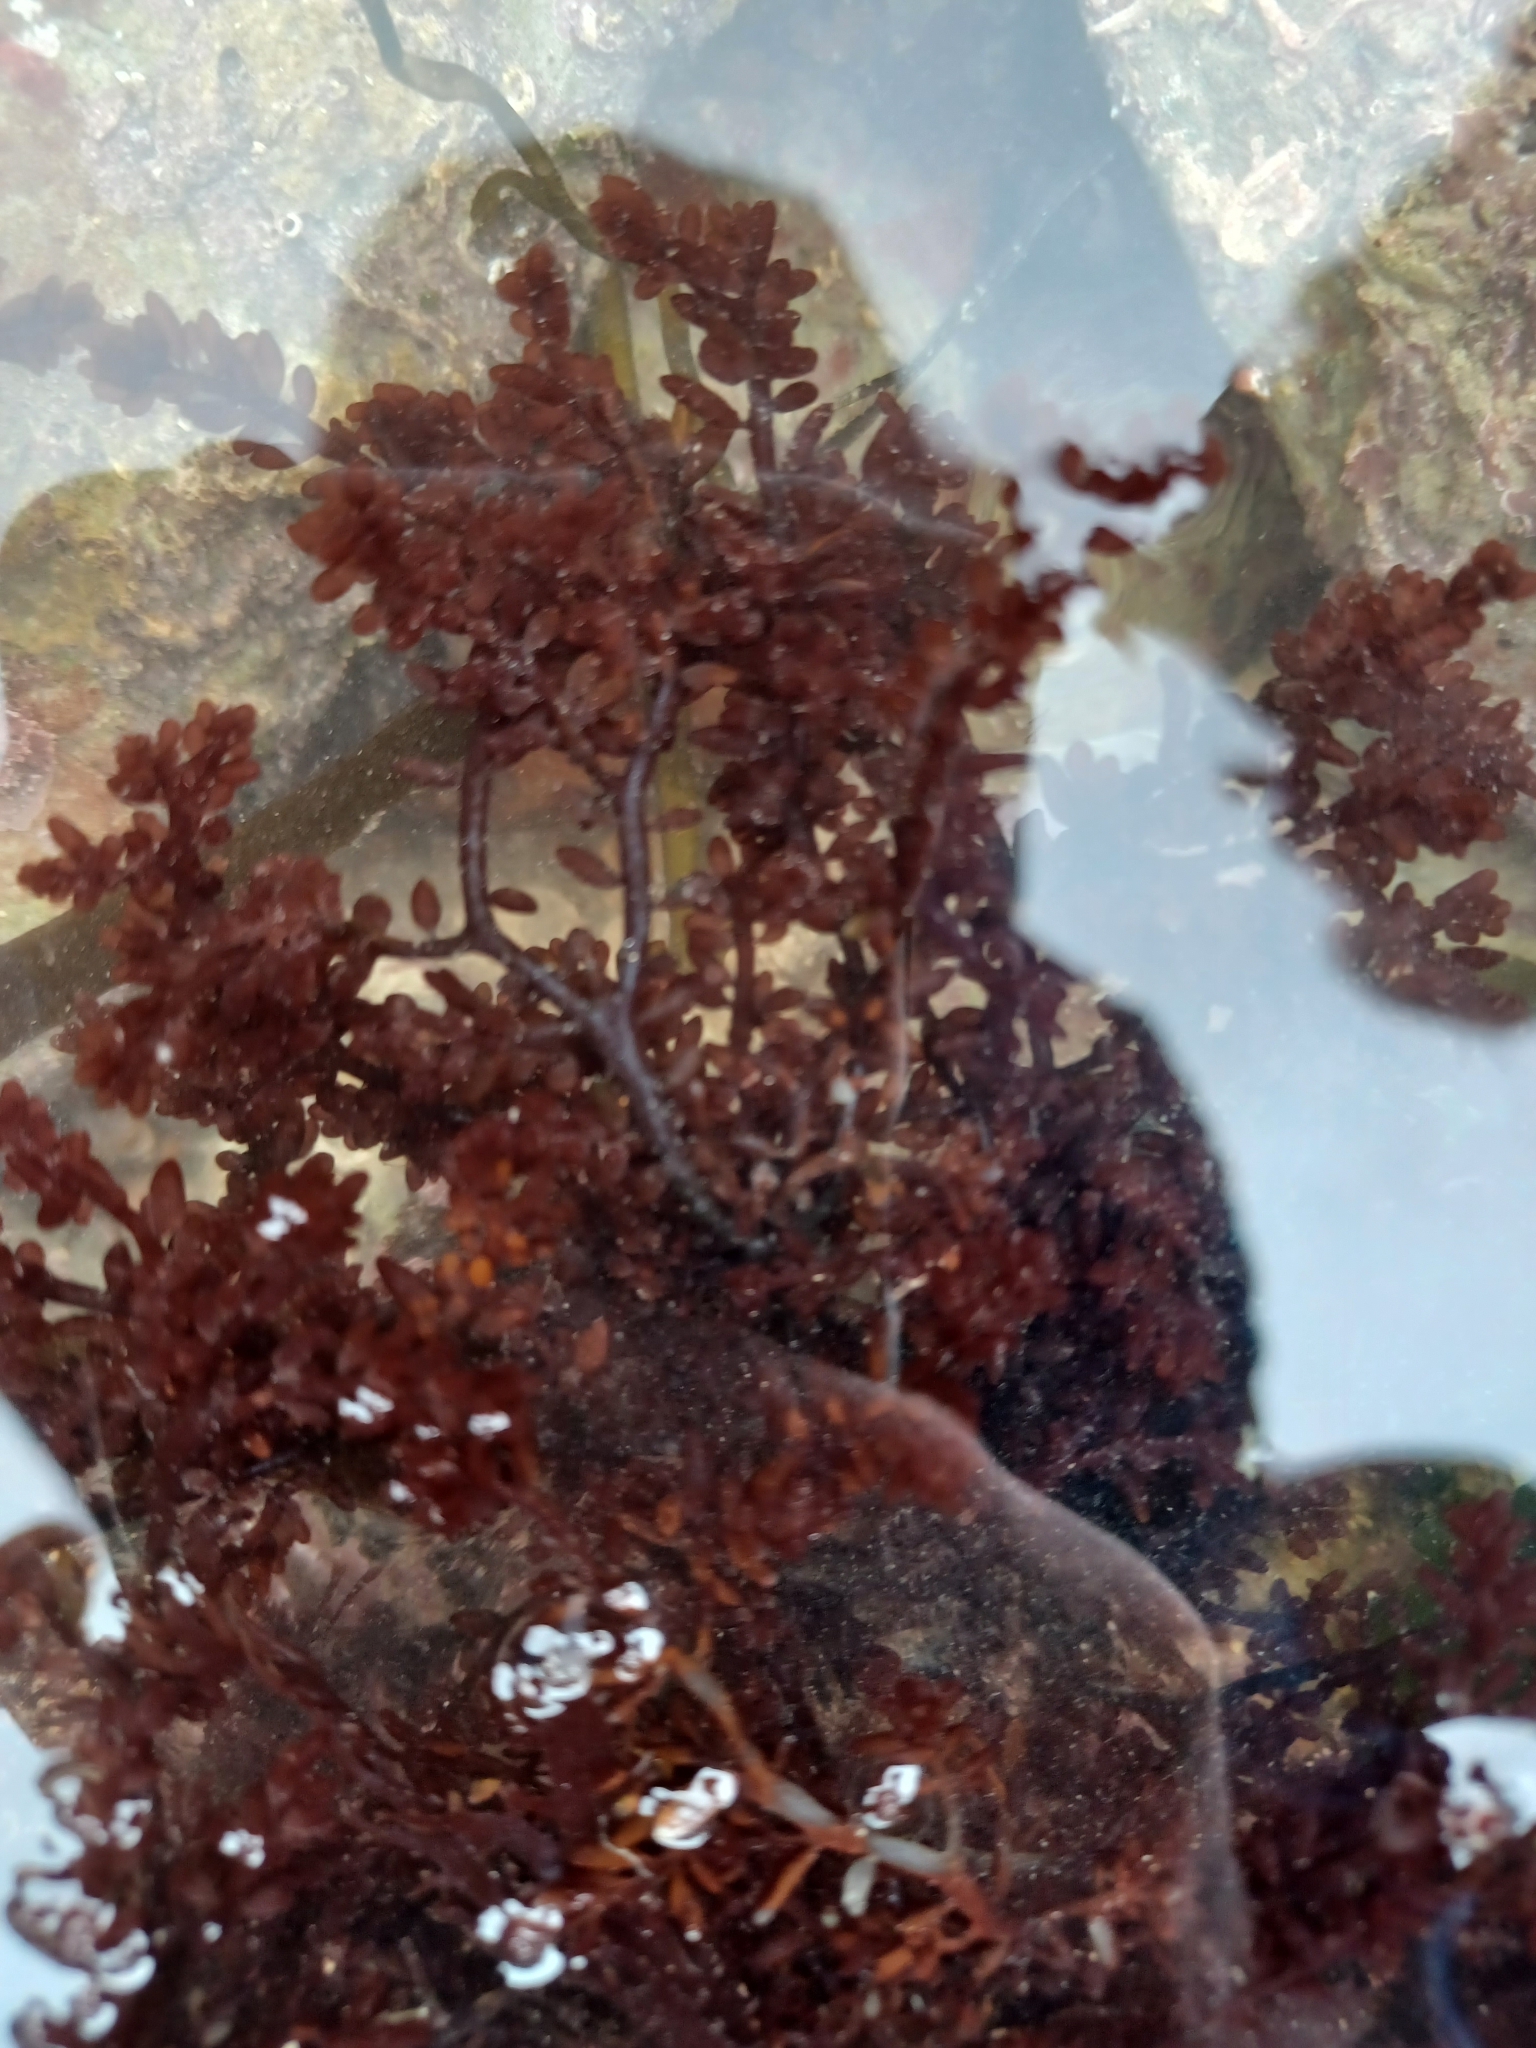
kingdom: Plantae
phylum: Rhodophyta
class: Florideophyceae
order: Rhodymeniales
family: Champiaceae
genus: Gastroclonium
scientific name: Gastroclonium ovatum
